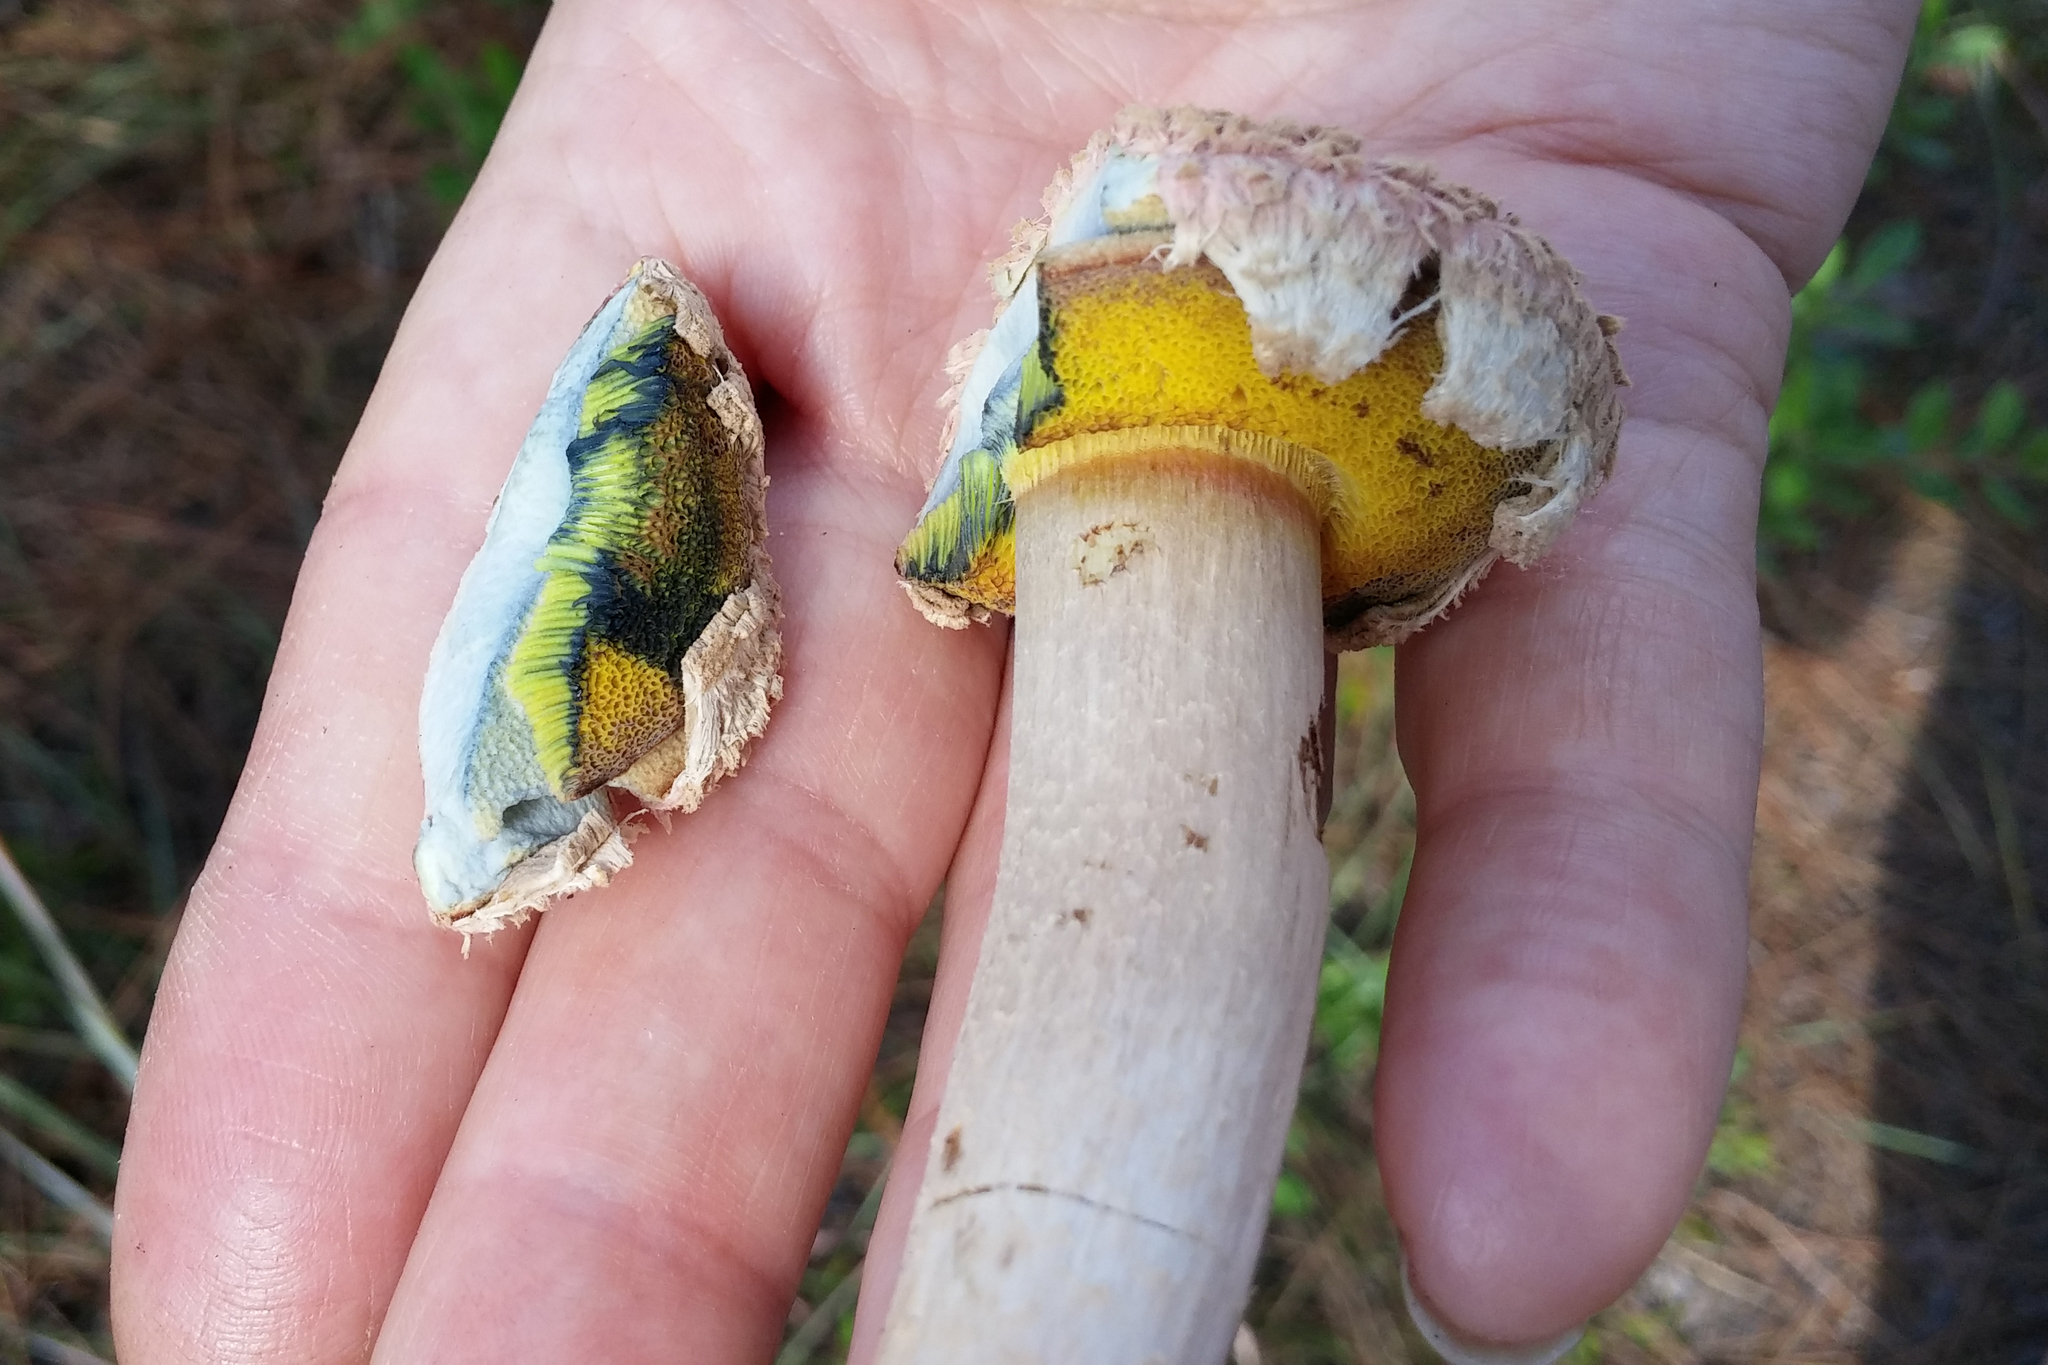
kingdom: Fungi
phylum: Basidiomycota
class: Agaricomycetes
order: Boletales
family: Boletaceae
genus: Boletellus
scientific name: Boletellus ananas
